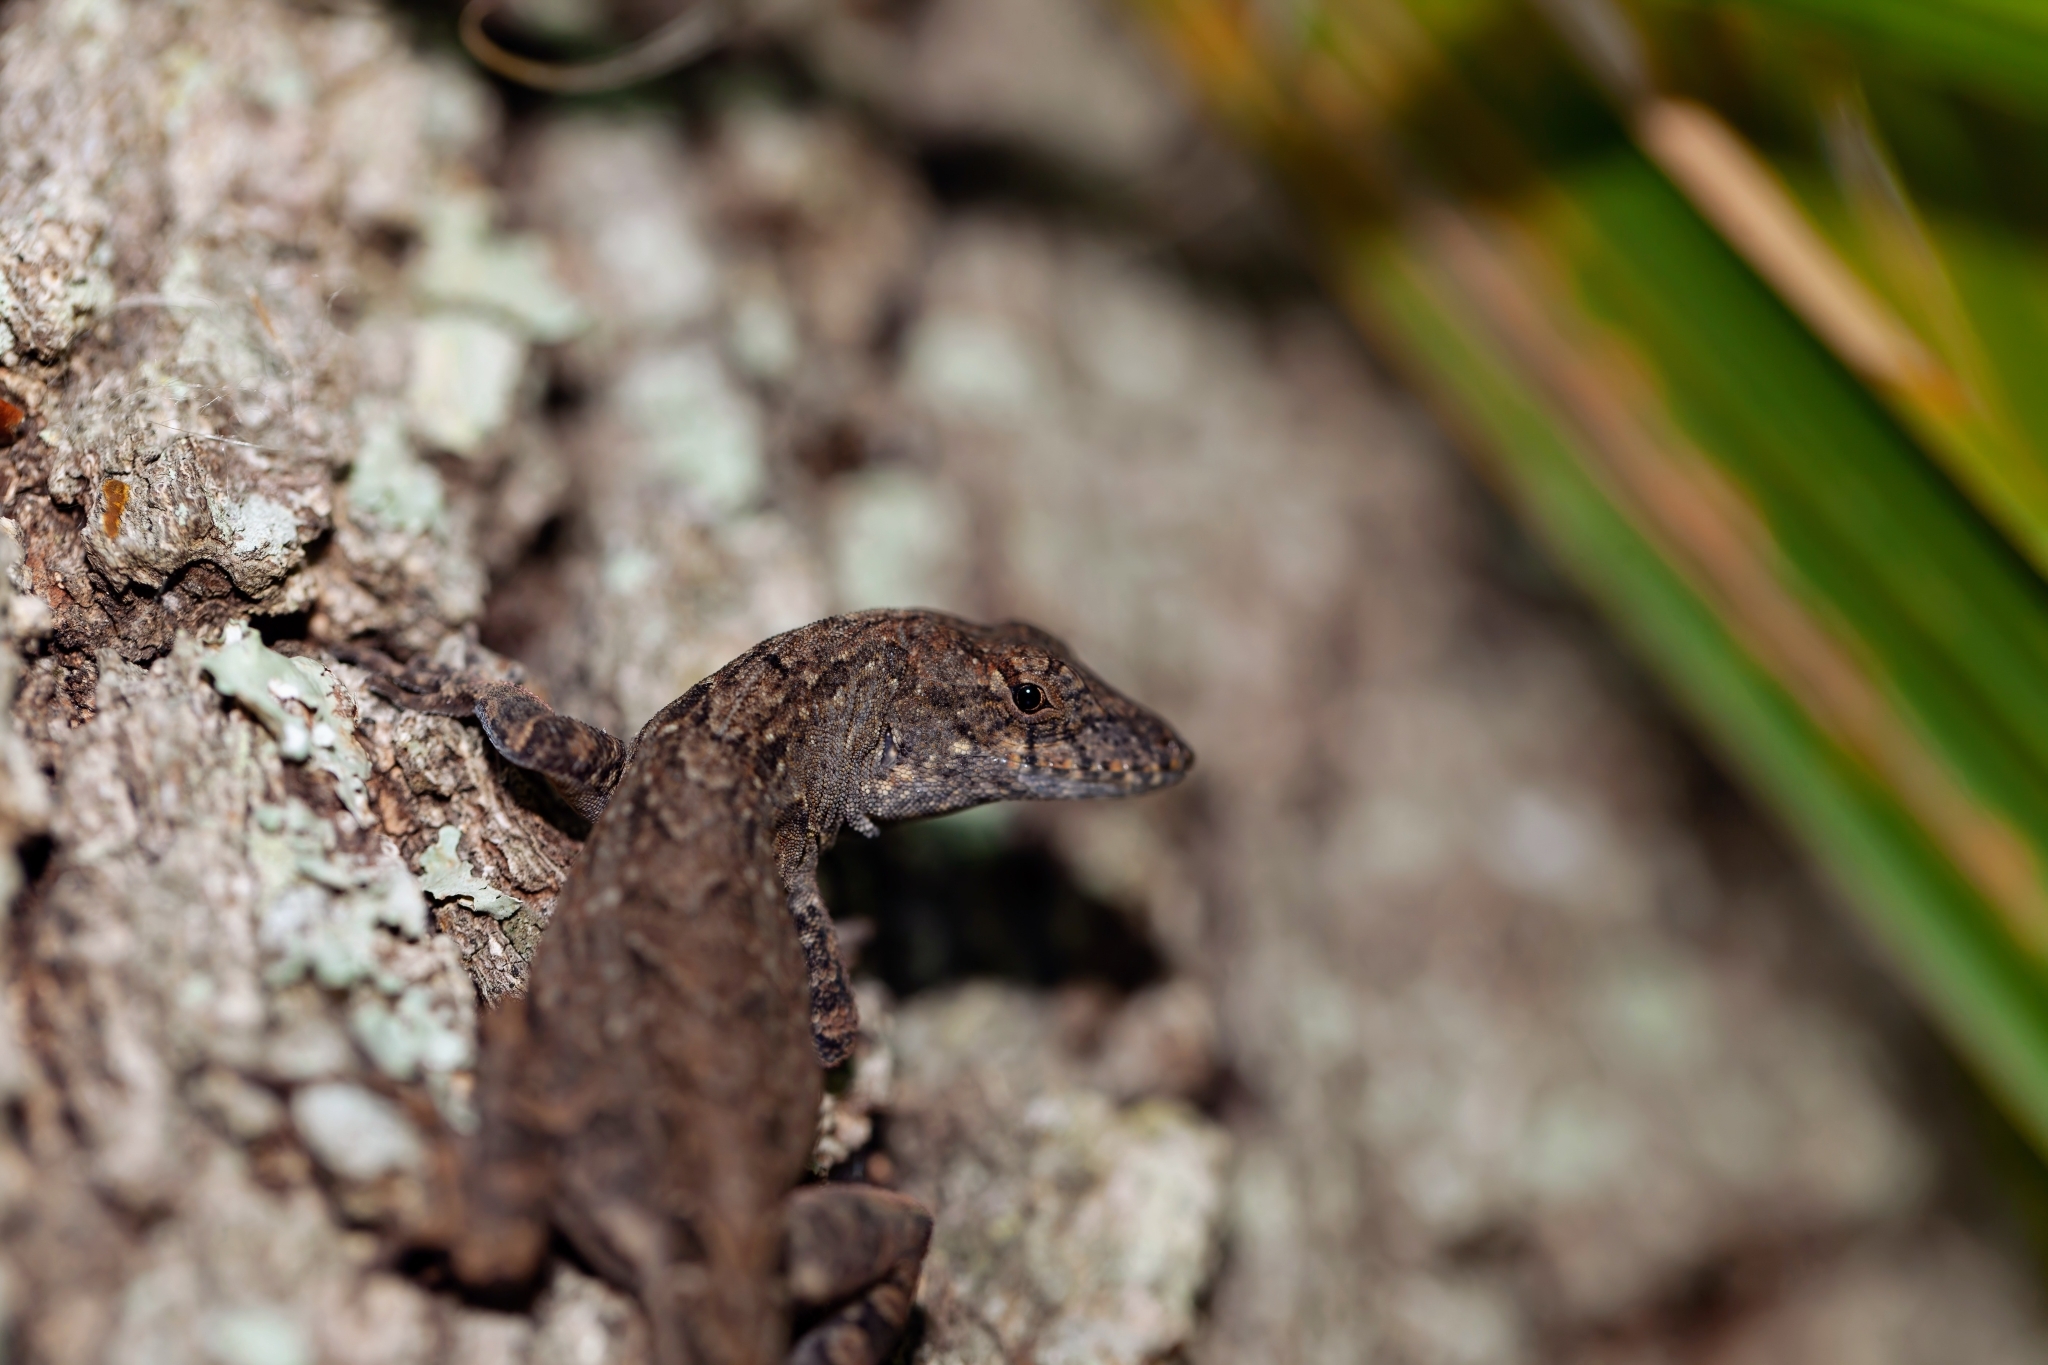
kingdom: Animalia
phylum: Chordata
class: Squamata
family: Dactyloidae
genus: Anolis
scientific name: Anolis sagrei
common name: Brown anole
